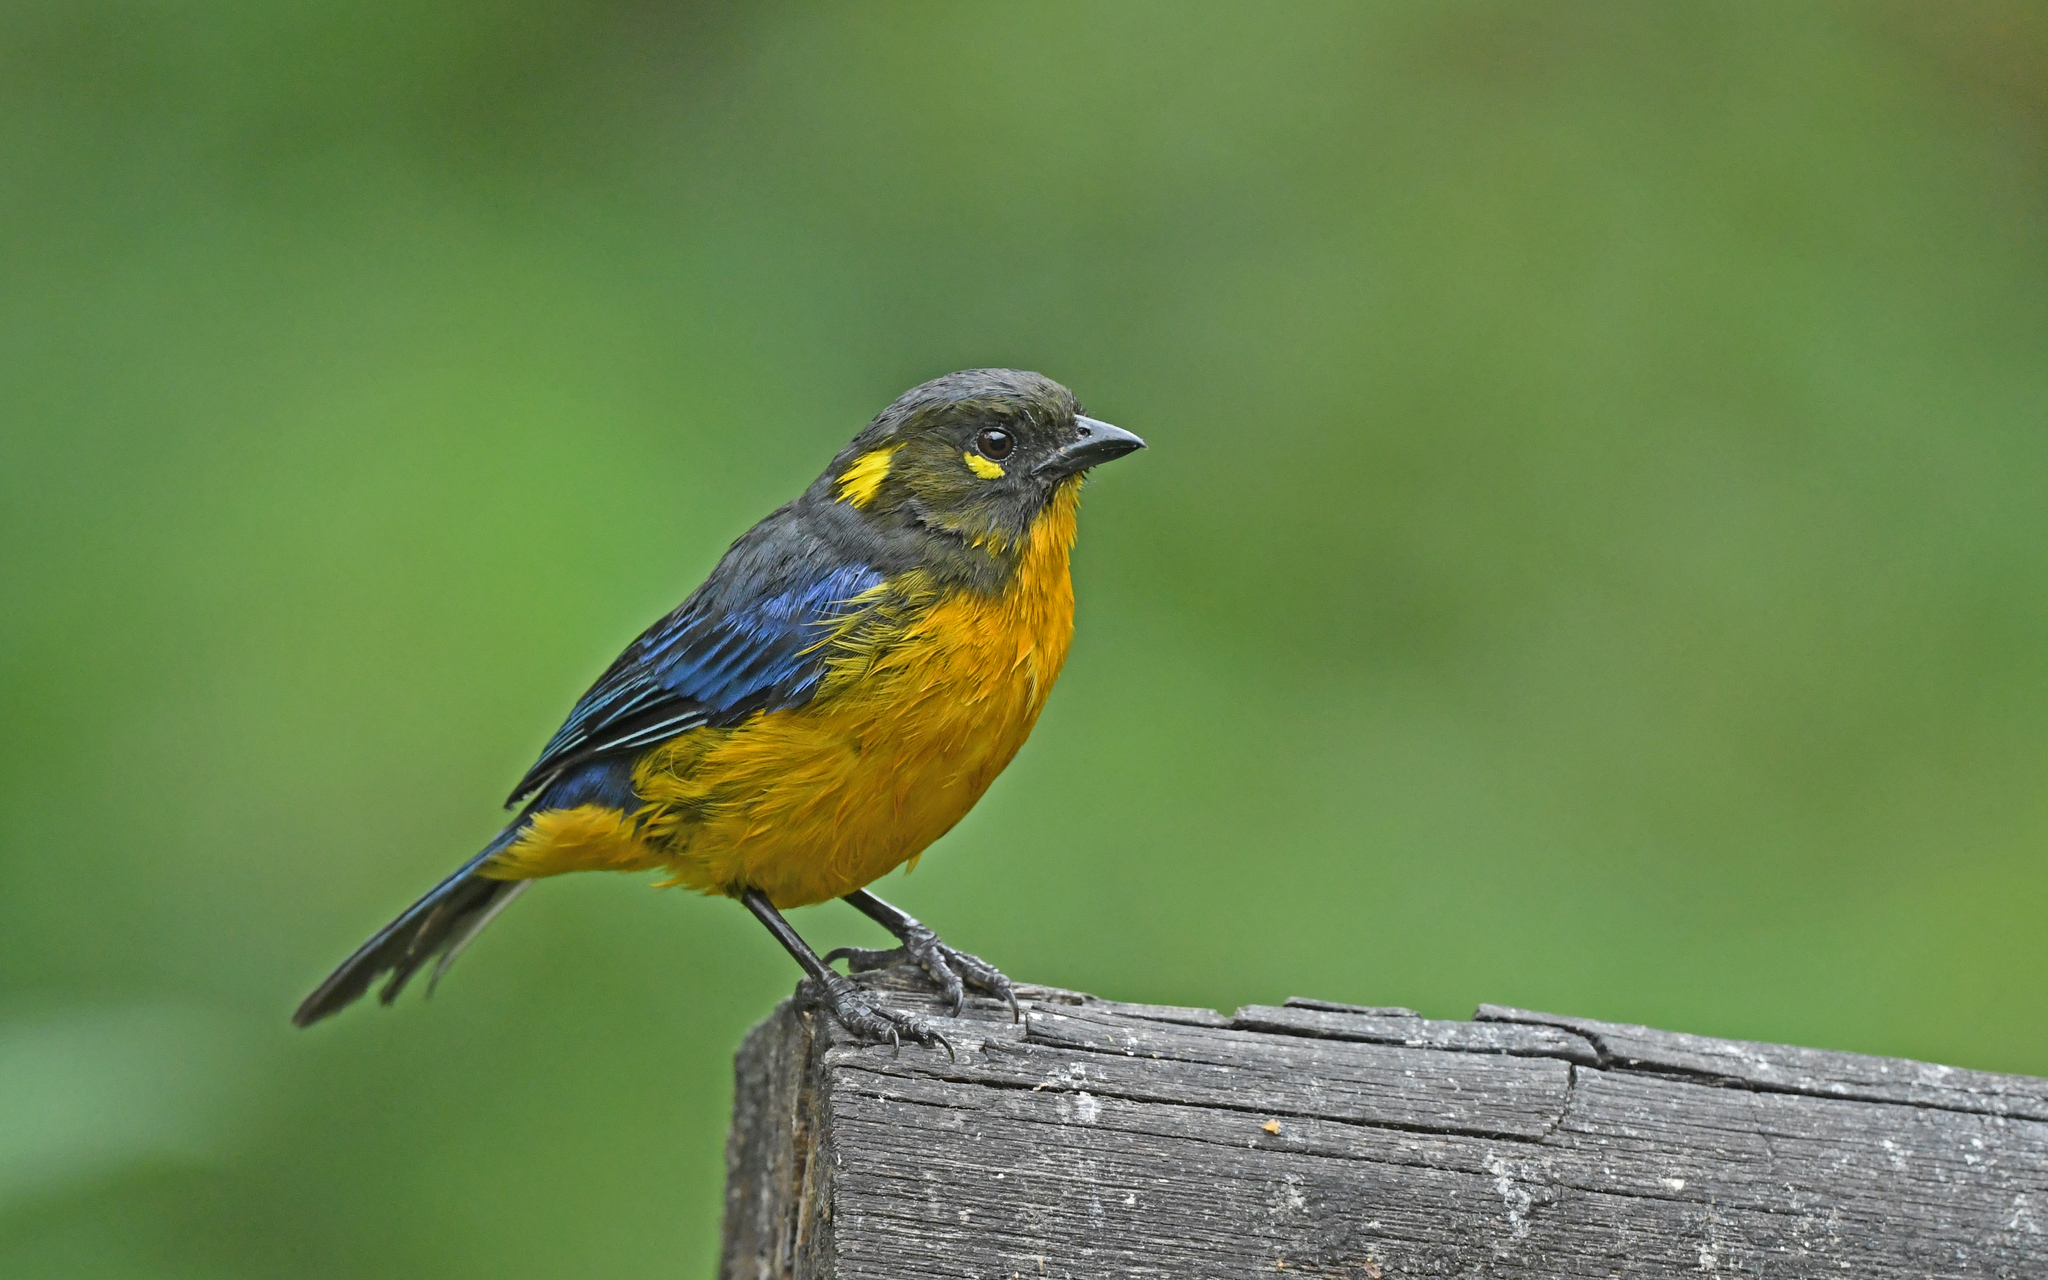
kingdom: Animalia
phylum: Chordata
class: Aves
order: Passeriformes
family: Thraupidae
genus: Anisognathus
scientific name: Anisognathus lacrymosus
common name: Lacrimose mountain-tanager
